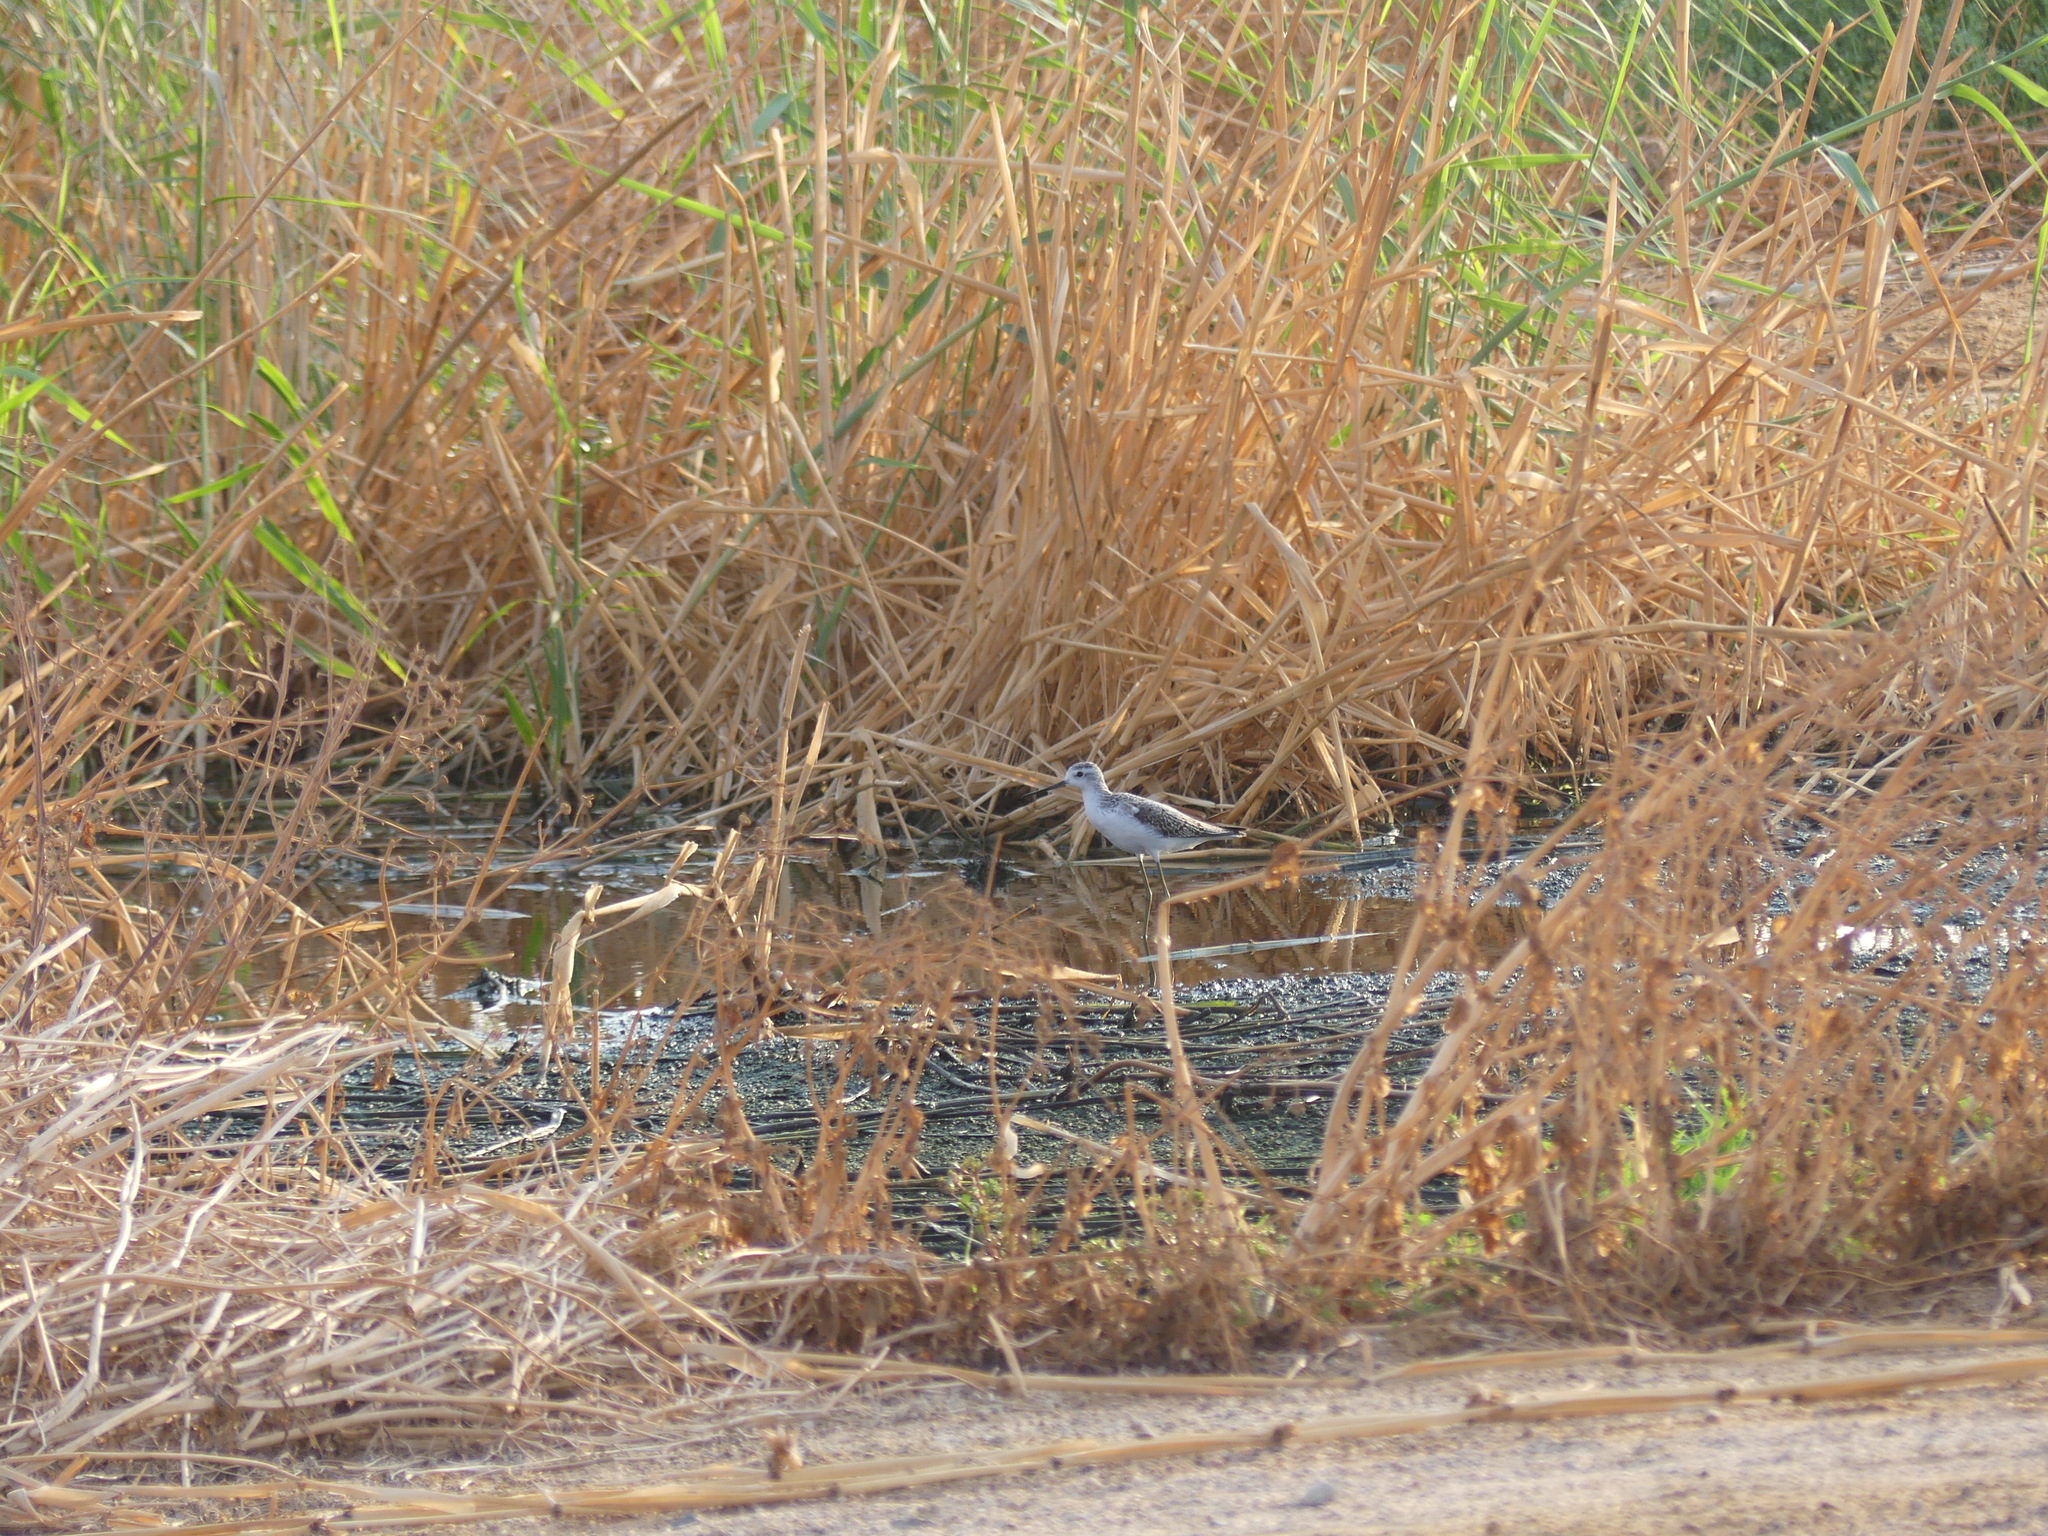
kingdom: Animalia
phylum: Chordata
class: Aves
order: Charadriiformes
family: Scolopacidae
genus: Tringa
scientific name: Tringa stagnatilis
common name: Marsh sandpiper
